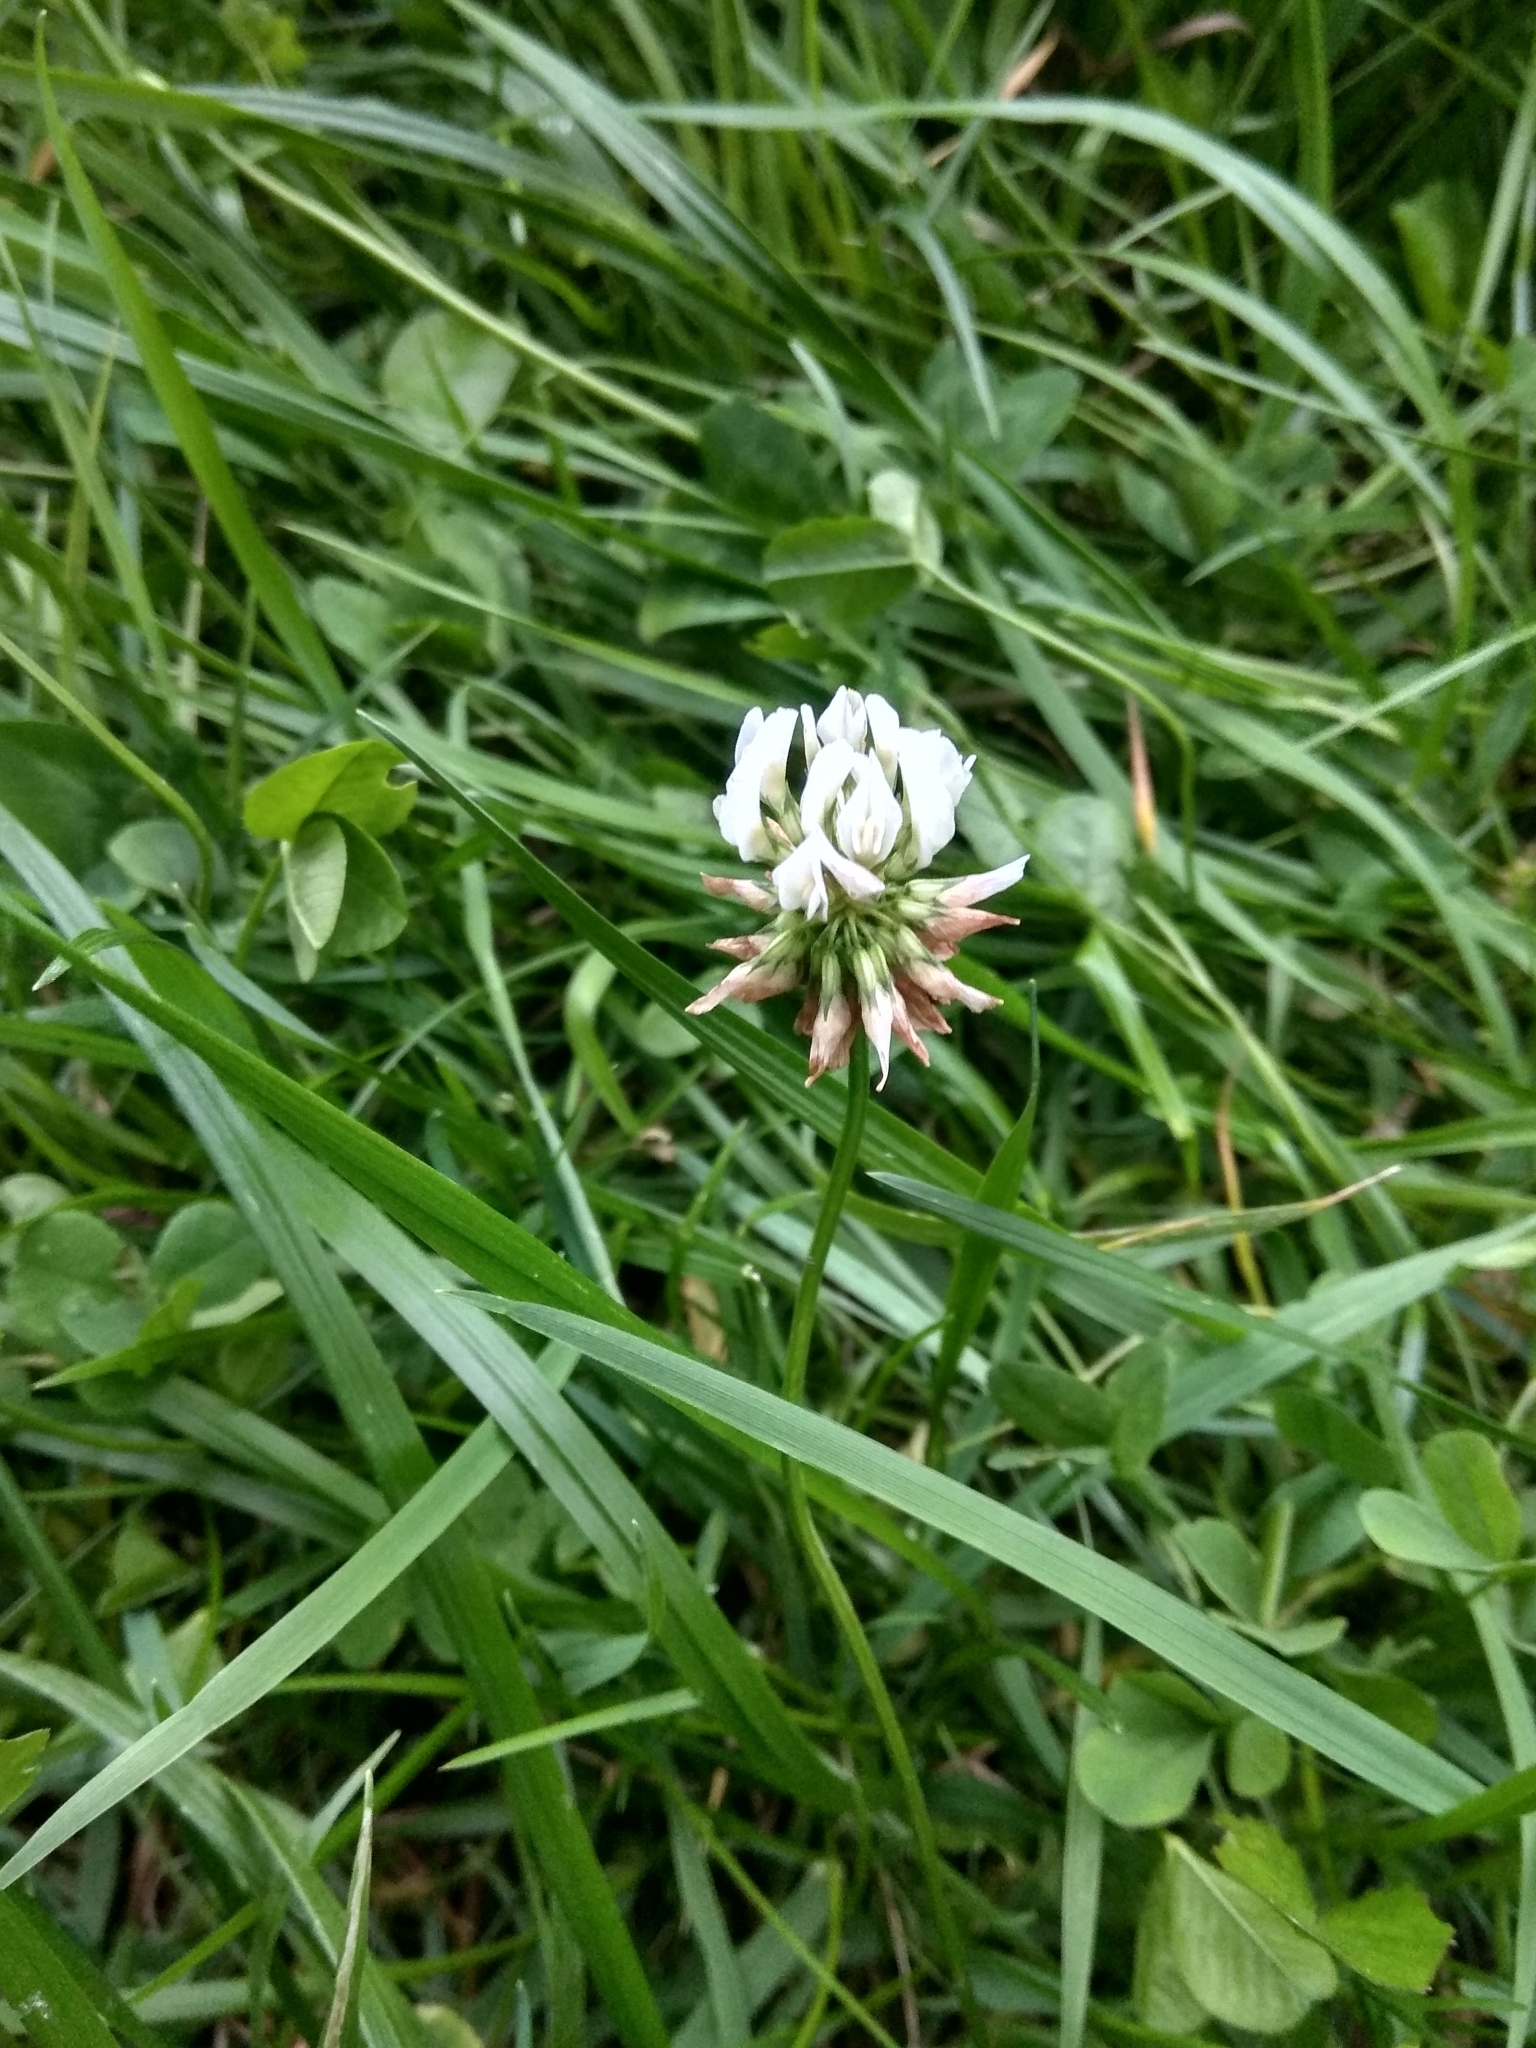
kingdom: Plantae
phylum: Tracheophyta
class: Magnoliopsida
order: Fabales
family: Fabaceae
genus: Trifolium
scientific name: Trifolium repens
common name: White clover
